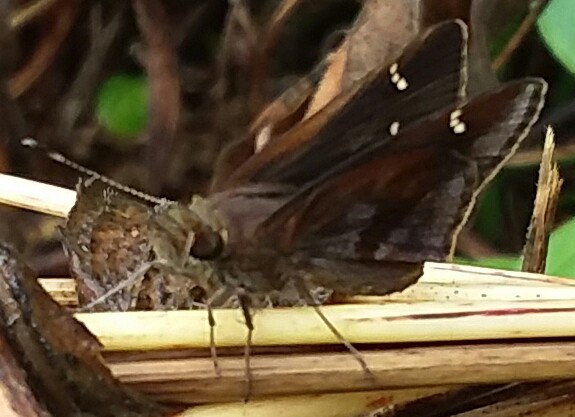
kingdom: Animalia
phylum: Arthropoda
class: Insecta
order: Lepidoptera
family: Hesperiidae
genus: Lerema
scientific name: Lerema accius
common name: Clouded skipper
